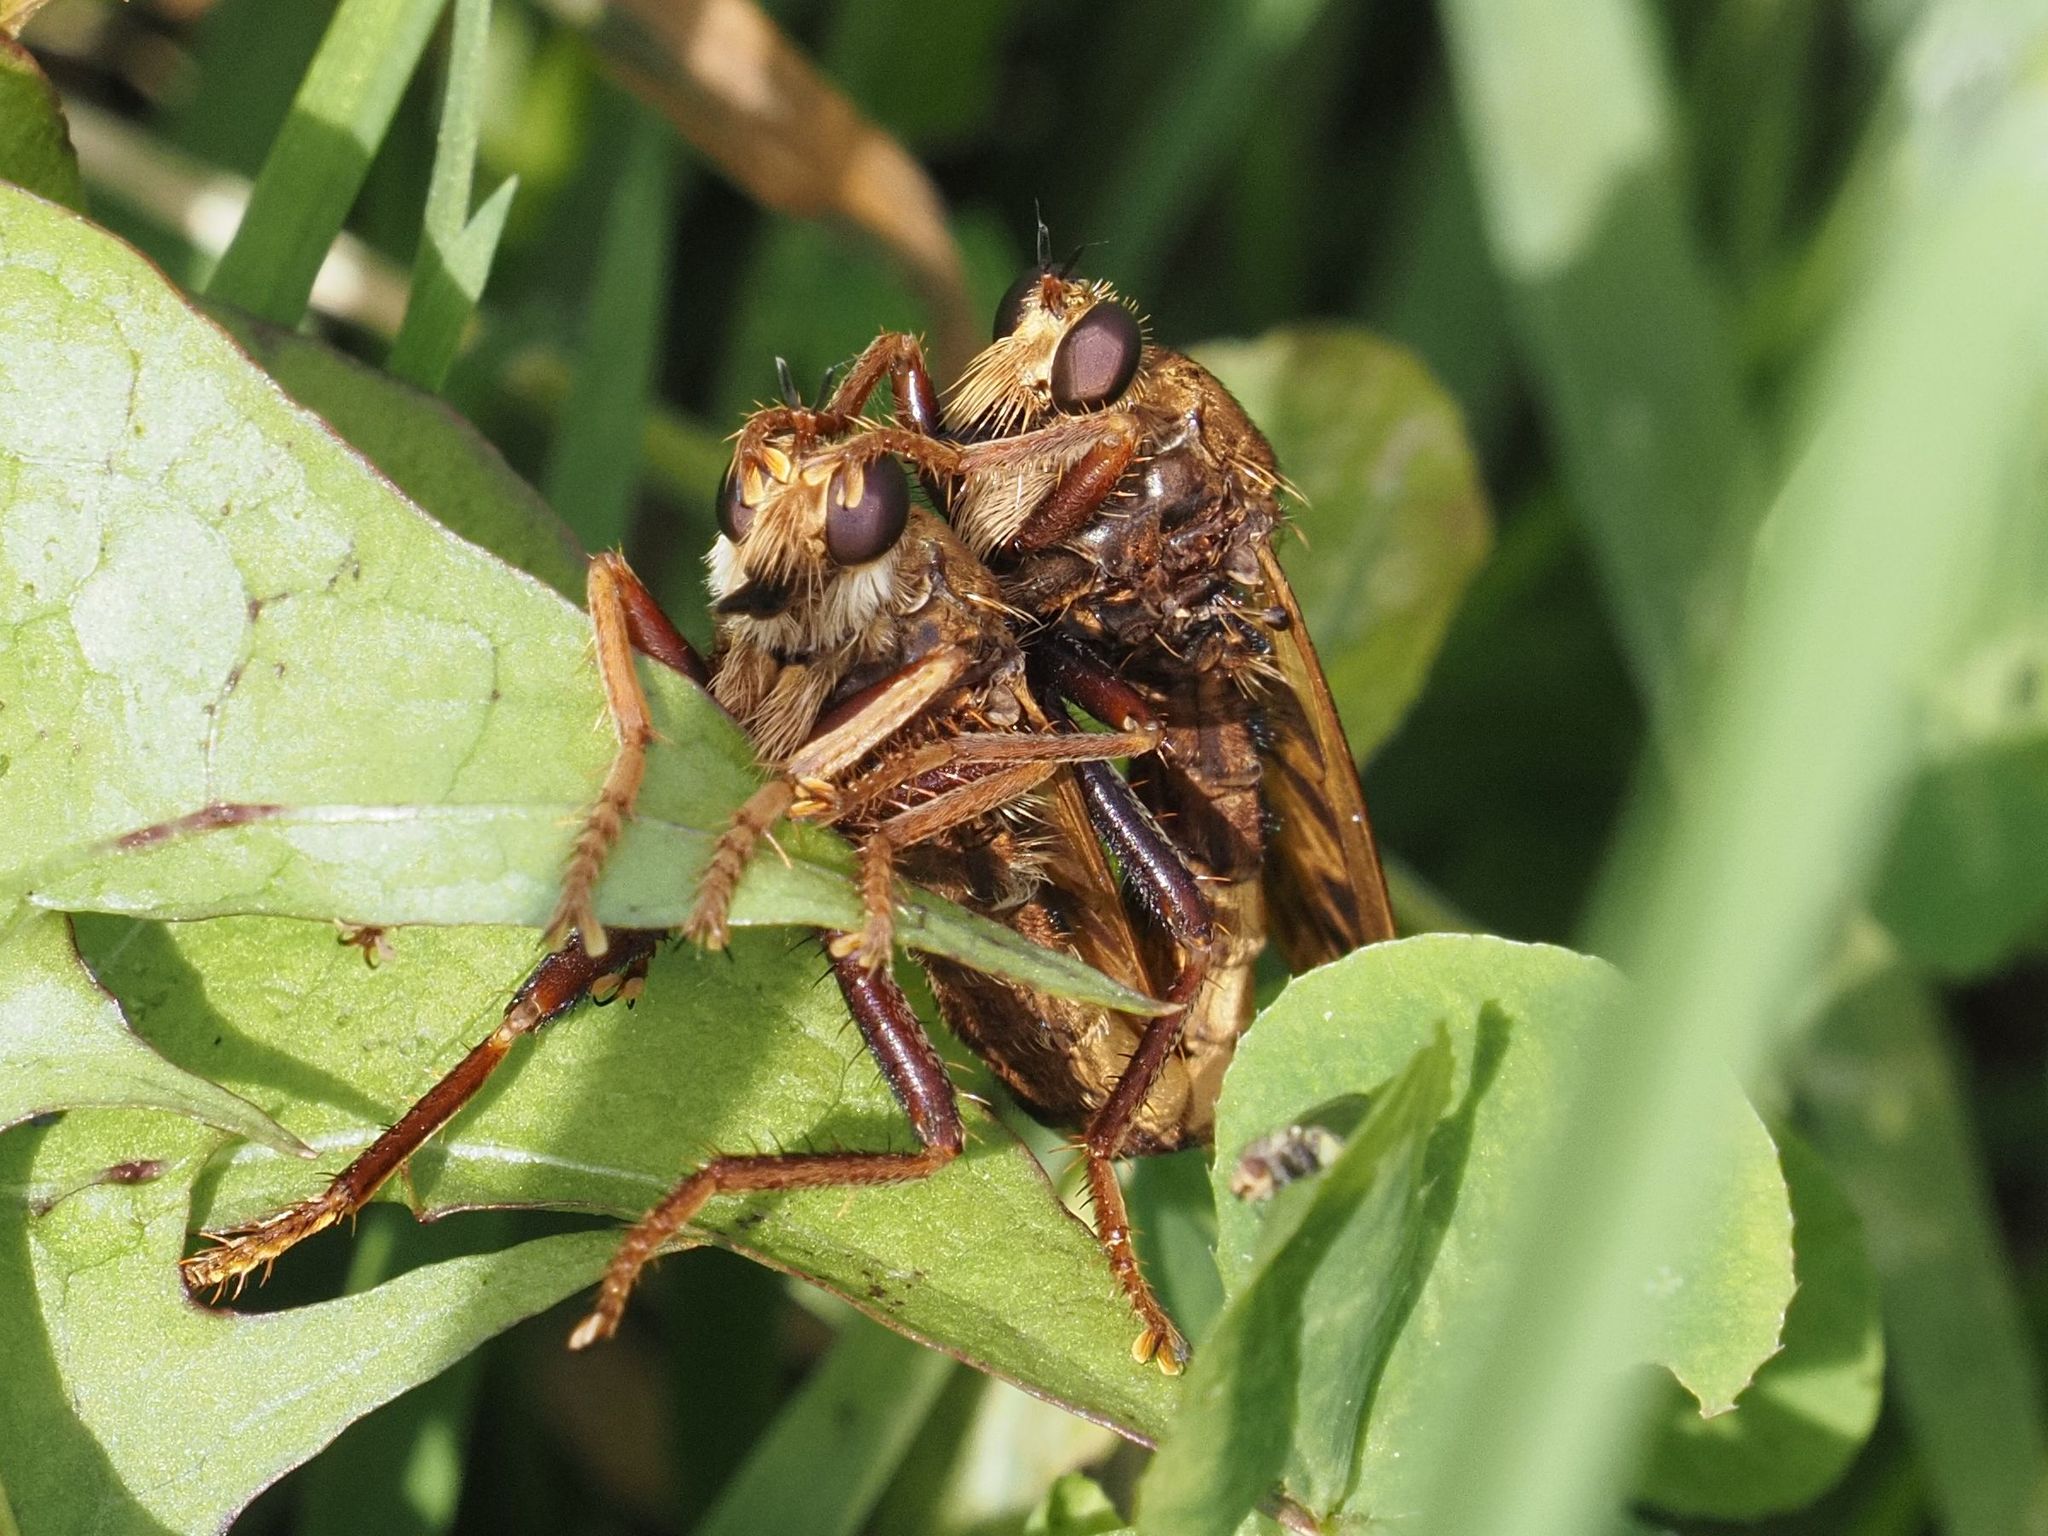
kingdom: Animalia
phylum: Arthropoda
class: Insecta
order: Diptera
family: Asilidae
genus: Asilus
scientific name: Asilus crabroniformis
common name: Hornet robberfly
